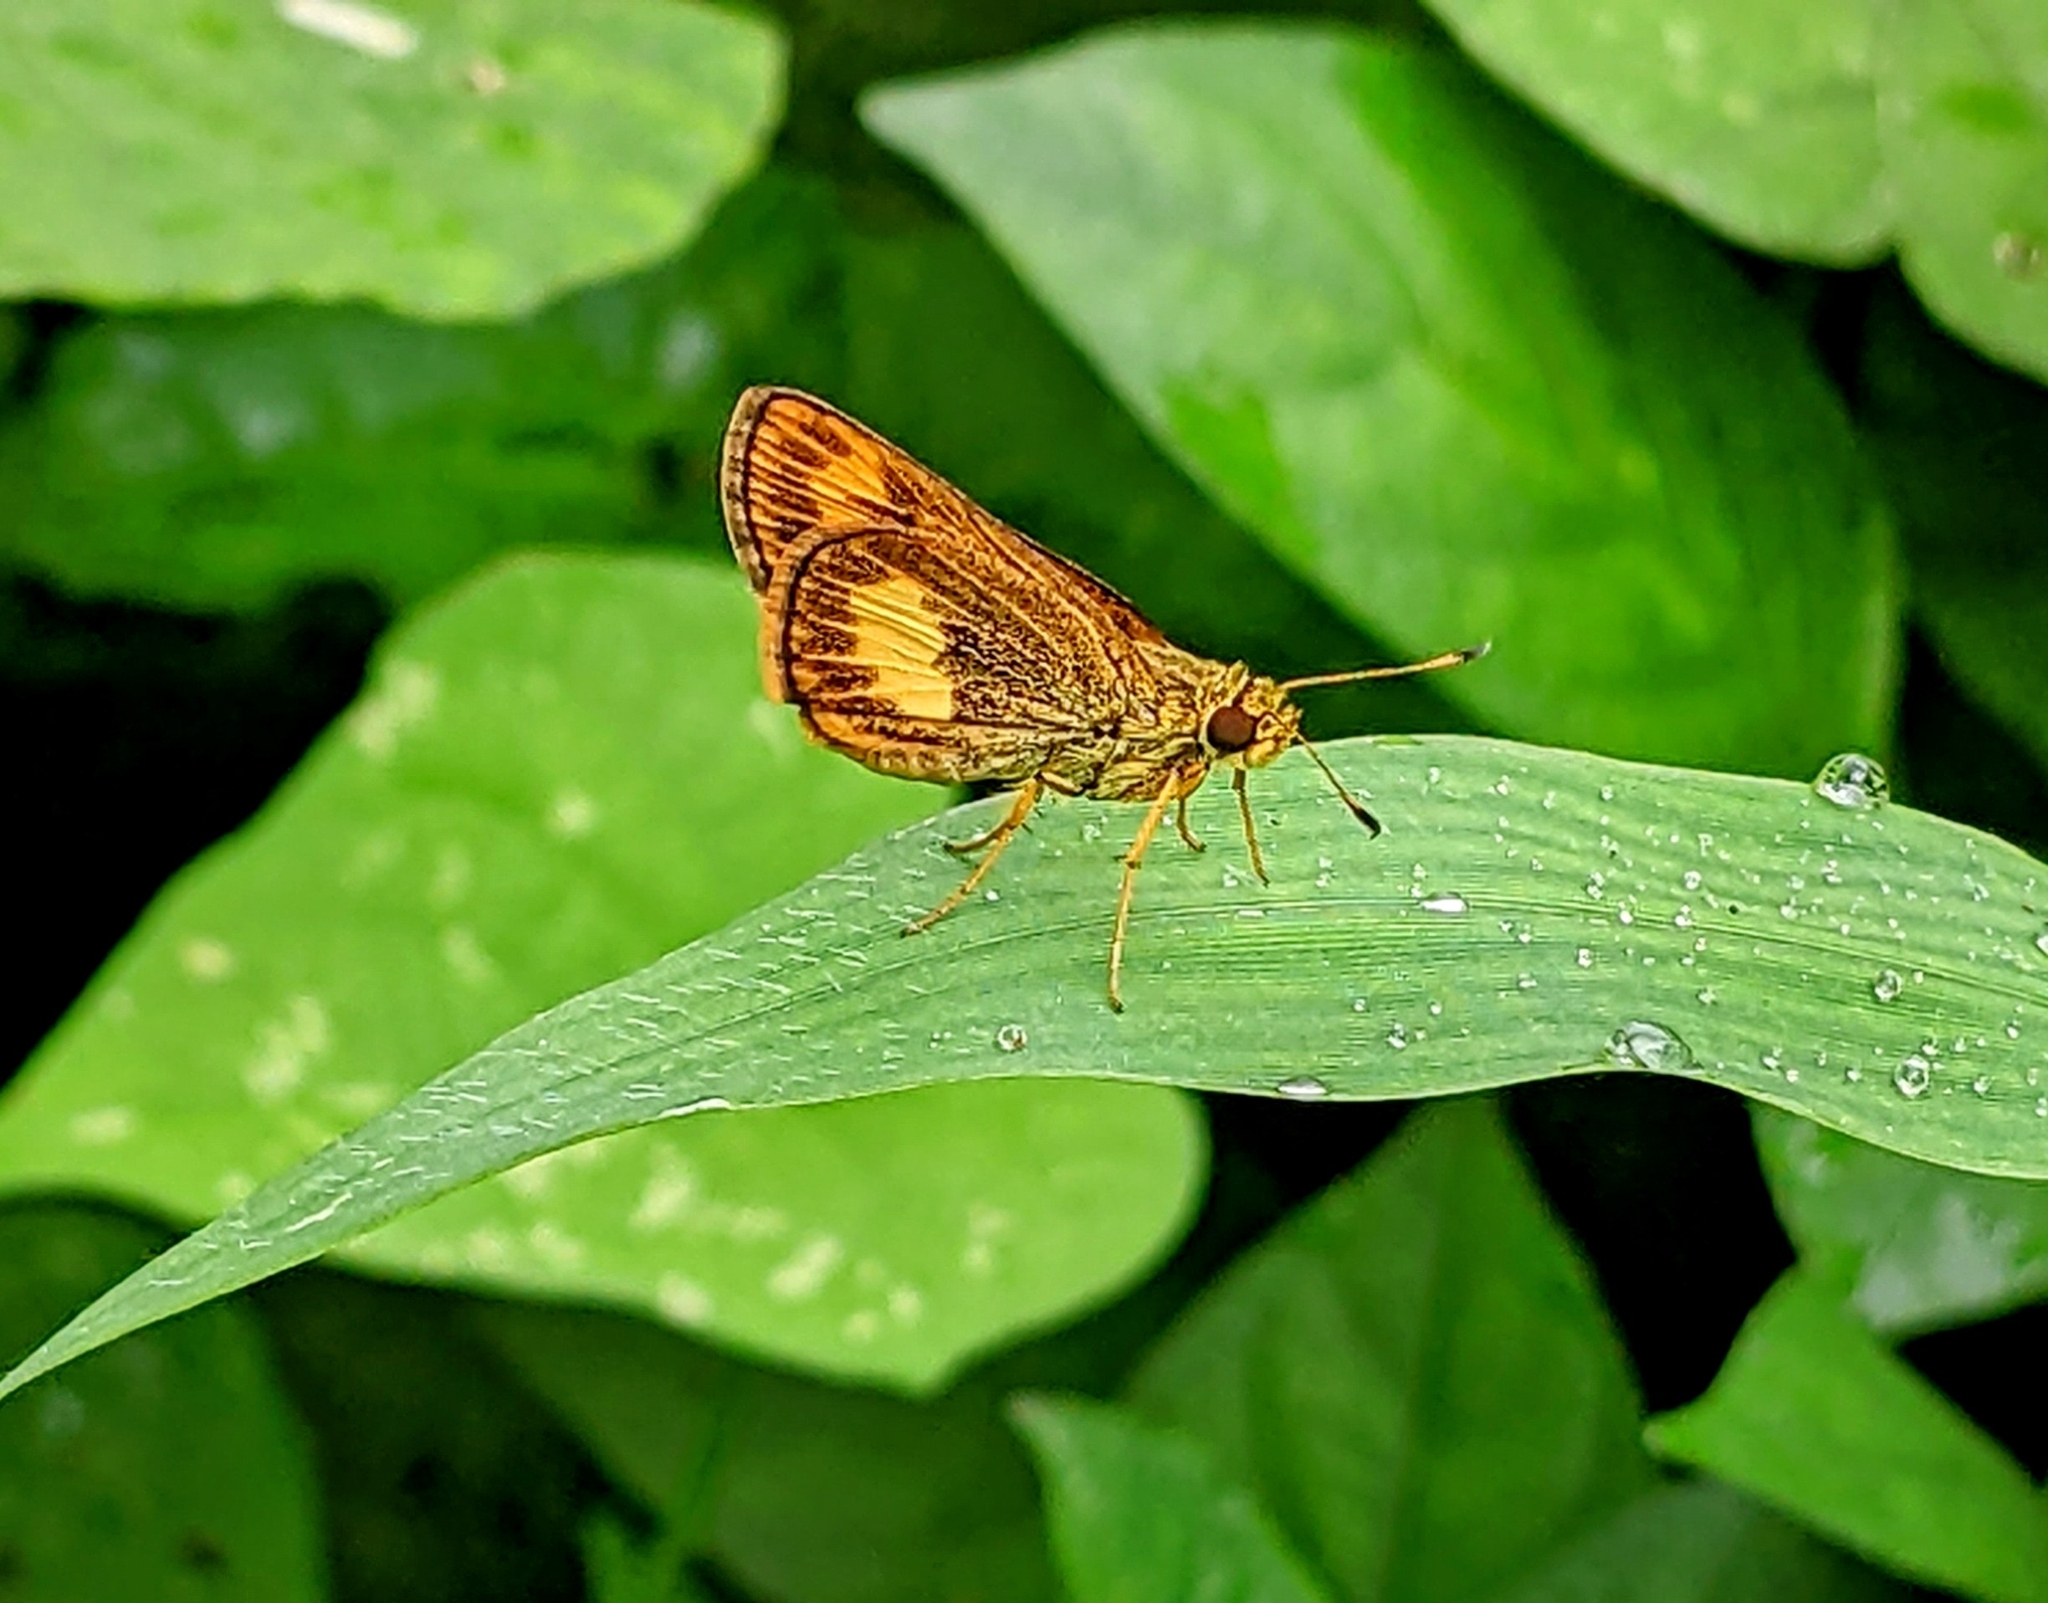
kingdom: Animalia
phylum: Arthropoda
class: Insecta
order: Lepidoptera
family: Hesperiidae
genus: Oriens
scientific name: Oriens paragola
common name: Malay dartlet
